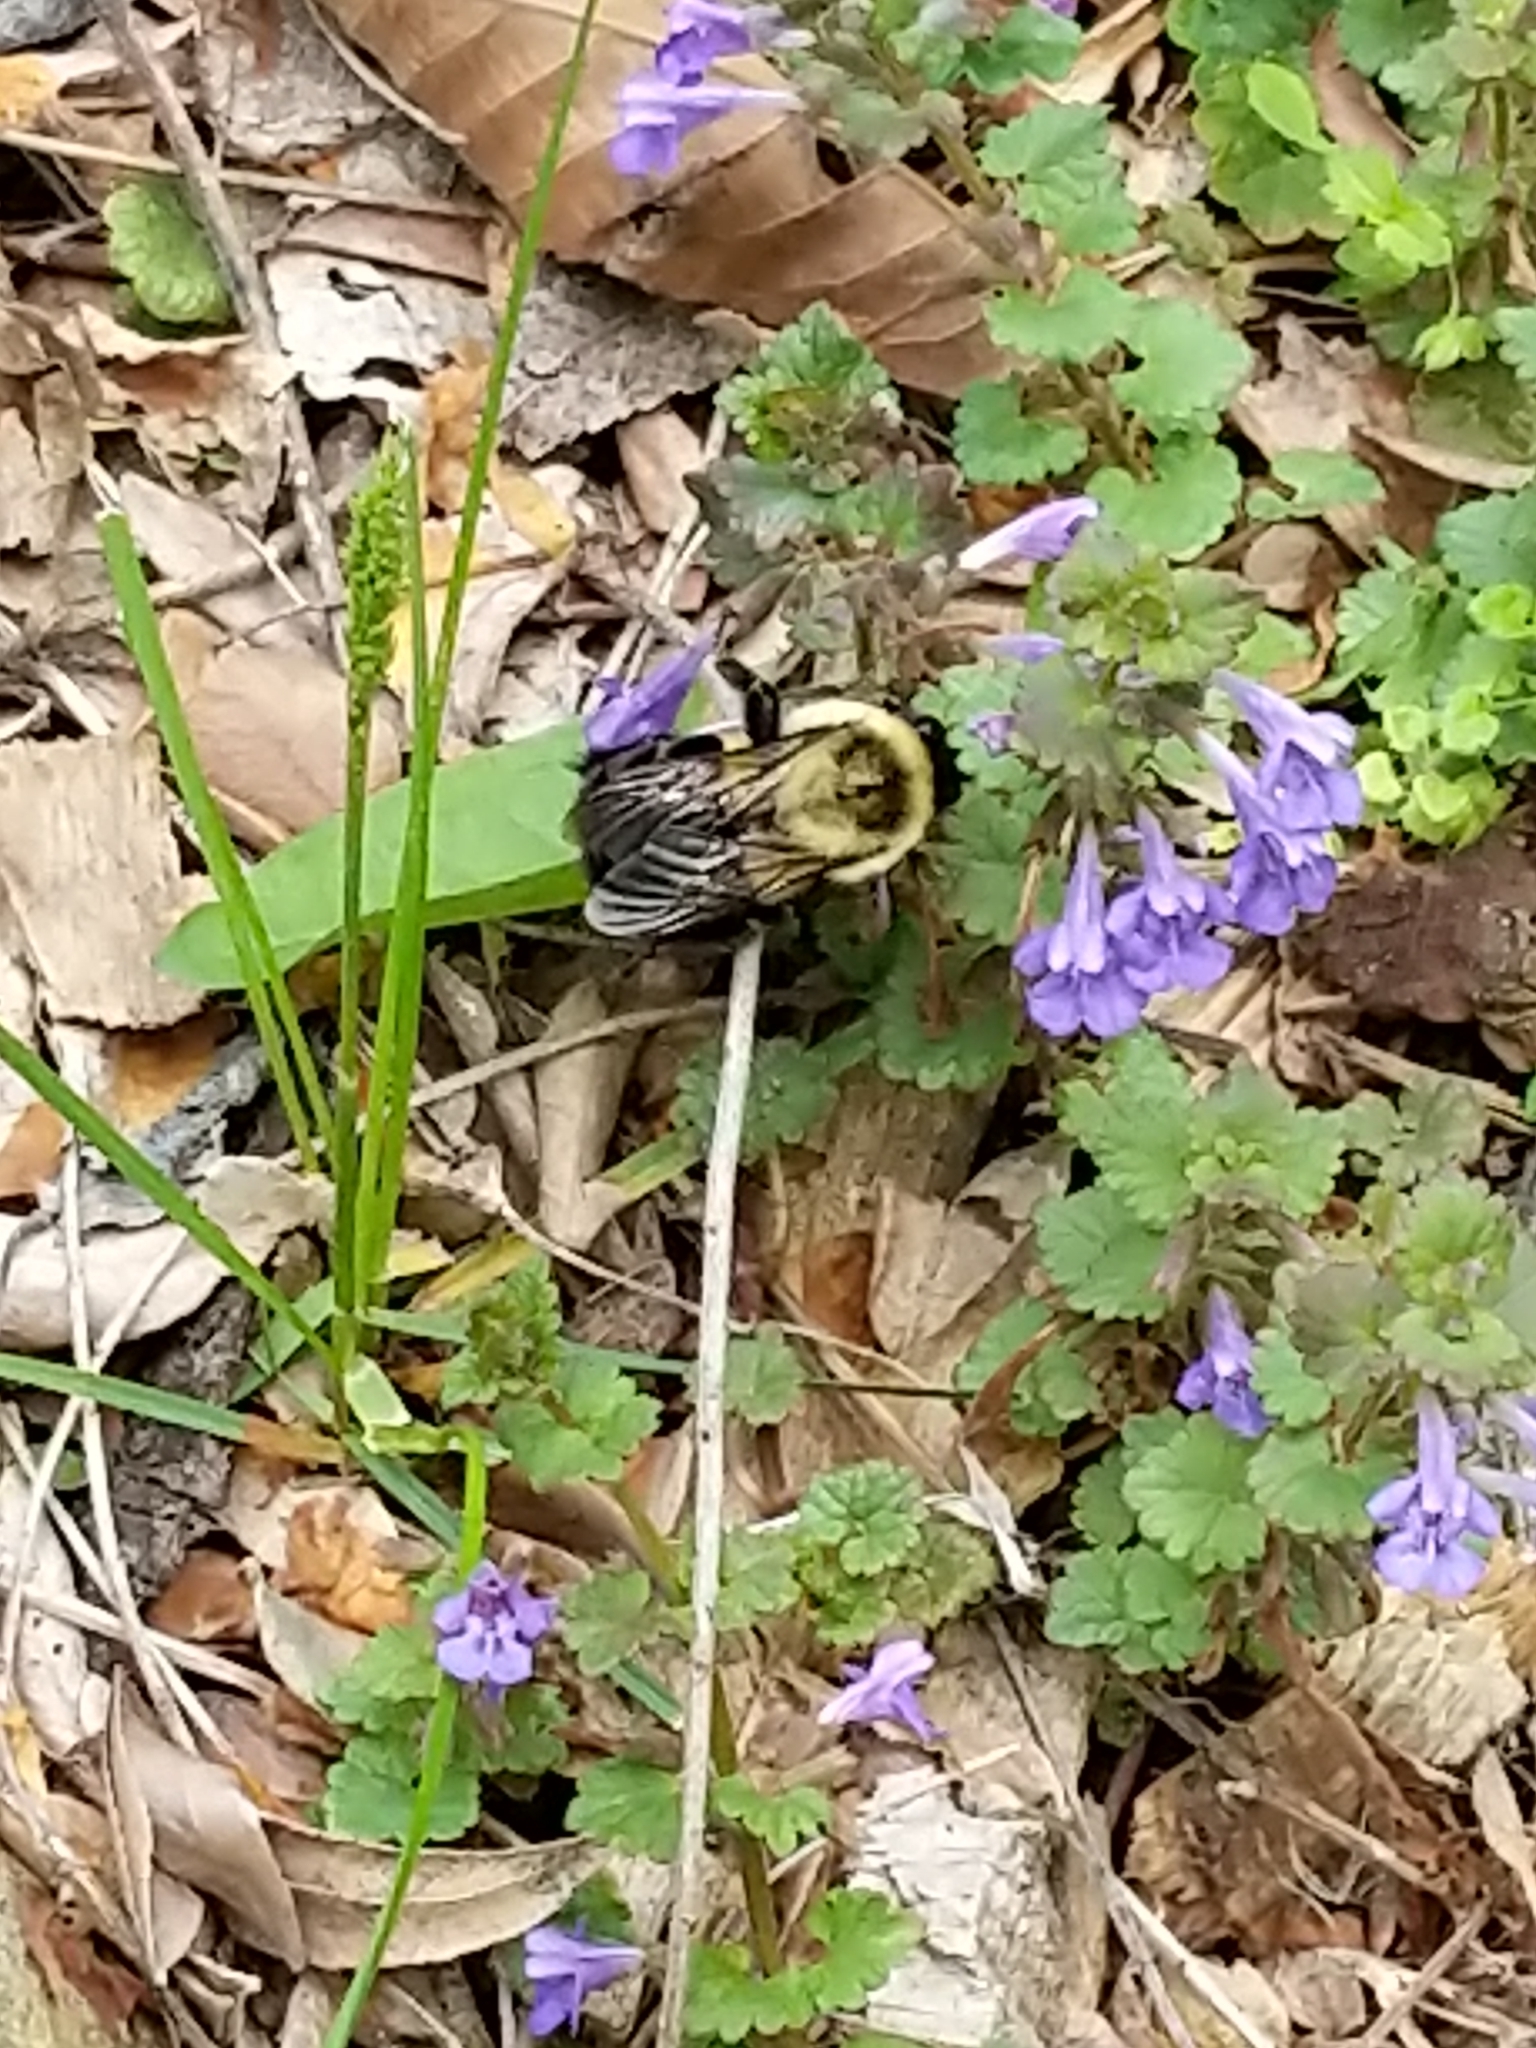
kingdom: Animalia
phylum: Arthropoda
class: Insecta
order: Hymenoptera
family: Apidae
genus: Bombus
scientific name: Bombus impatiens
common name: Common eastern bumble bee
